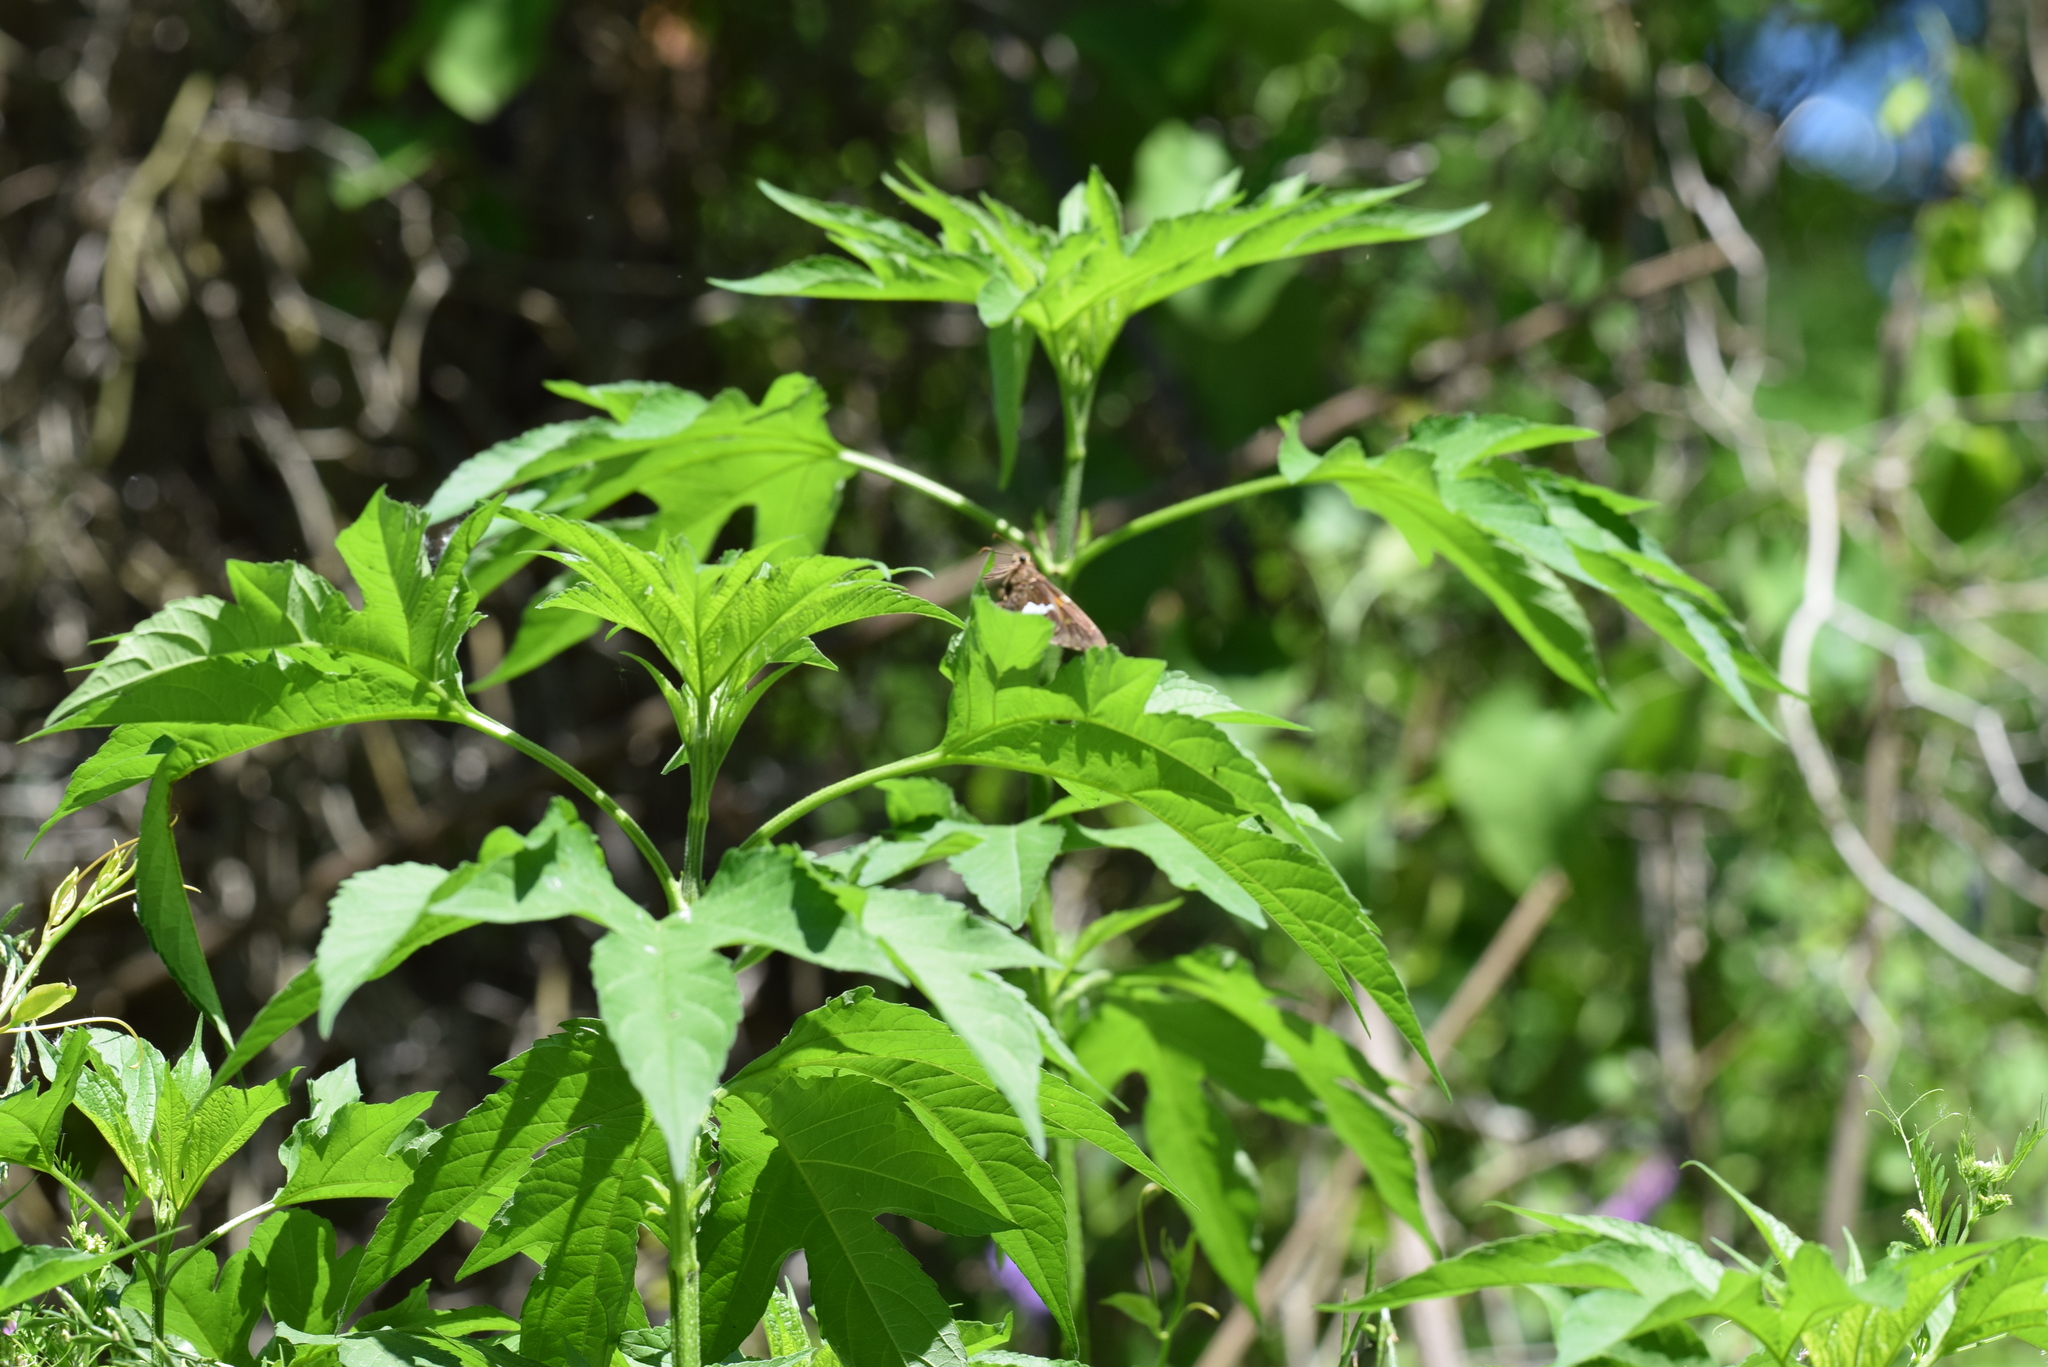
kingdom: Animalia
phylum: Arthropoda
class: Insecta
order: Lepidoptera
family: Hesperiidae
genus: Epargyreus
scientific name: Epargyreus clarus
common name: Silver-spotted skipper
